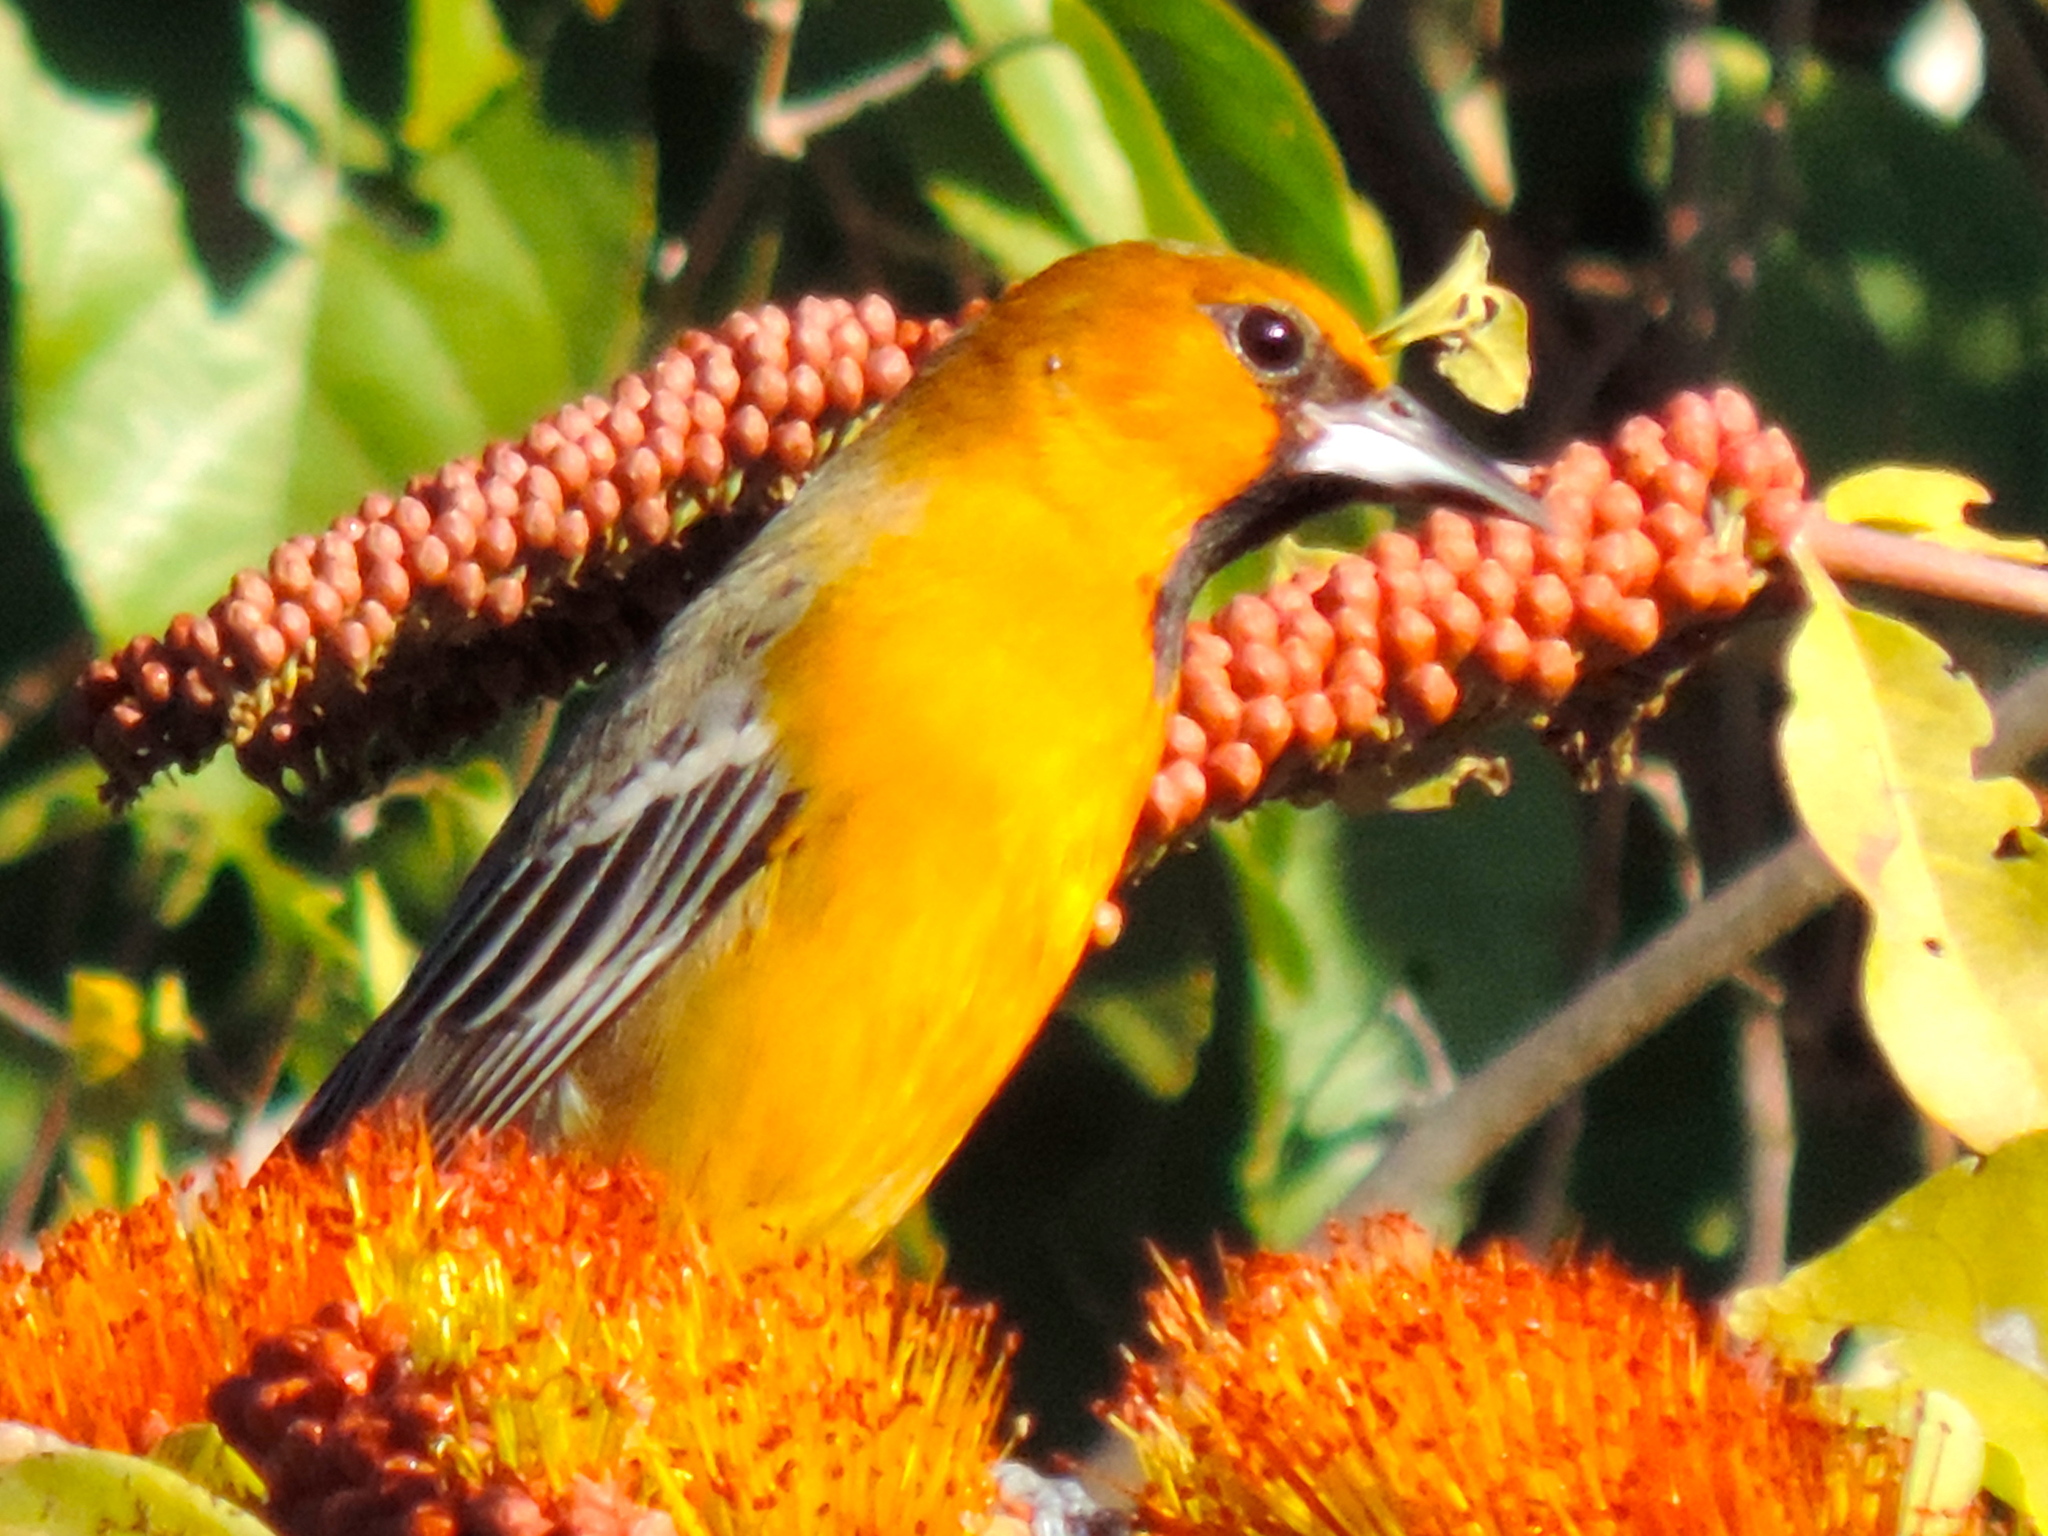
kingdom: Animalia
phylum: Chordata
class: Aves
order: Passeriformes
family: Icteridae
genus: Icterus
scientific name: Icterus pustulatus
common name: Streak-backed oriole
